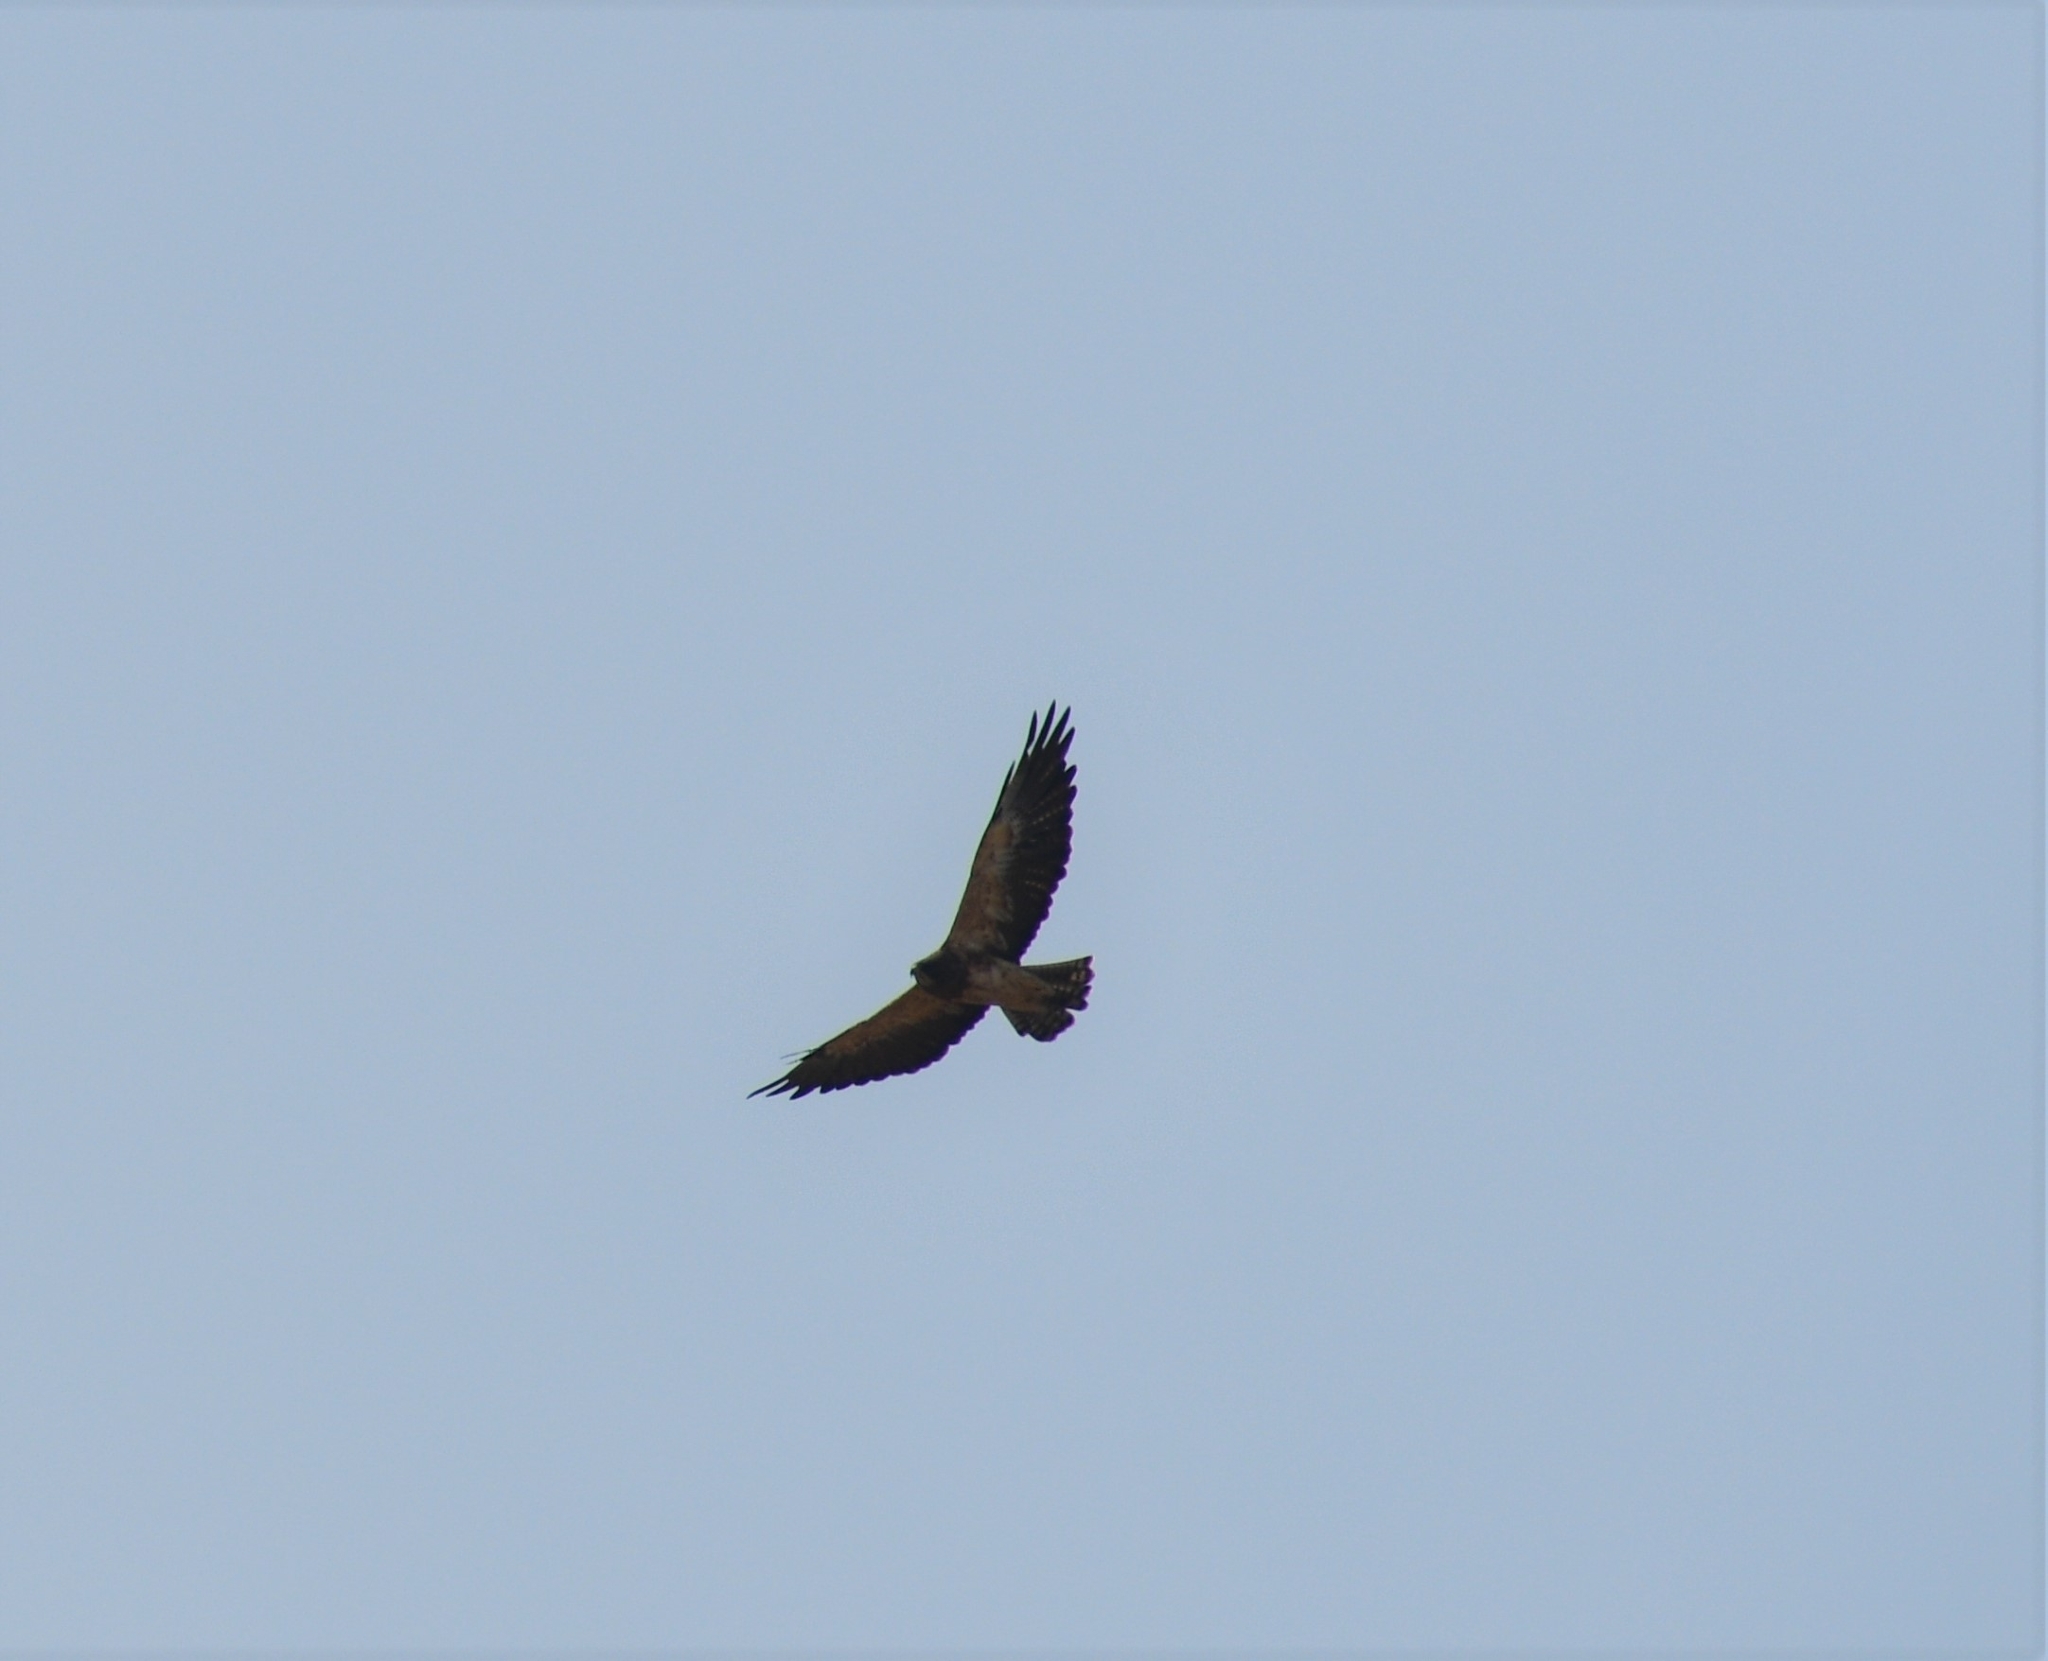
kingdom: Animalia
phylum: Chordata
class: Aves
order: Accipitriformes
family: Accipitridae
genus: Buteo
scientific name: Buteo swainsoni
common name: Swainson's hawk
